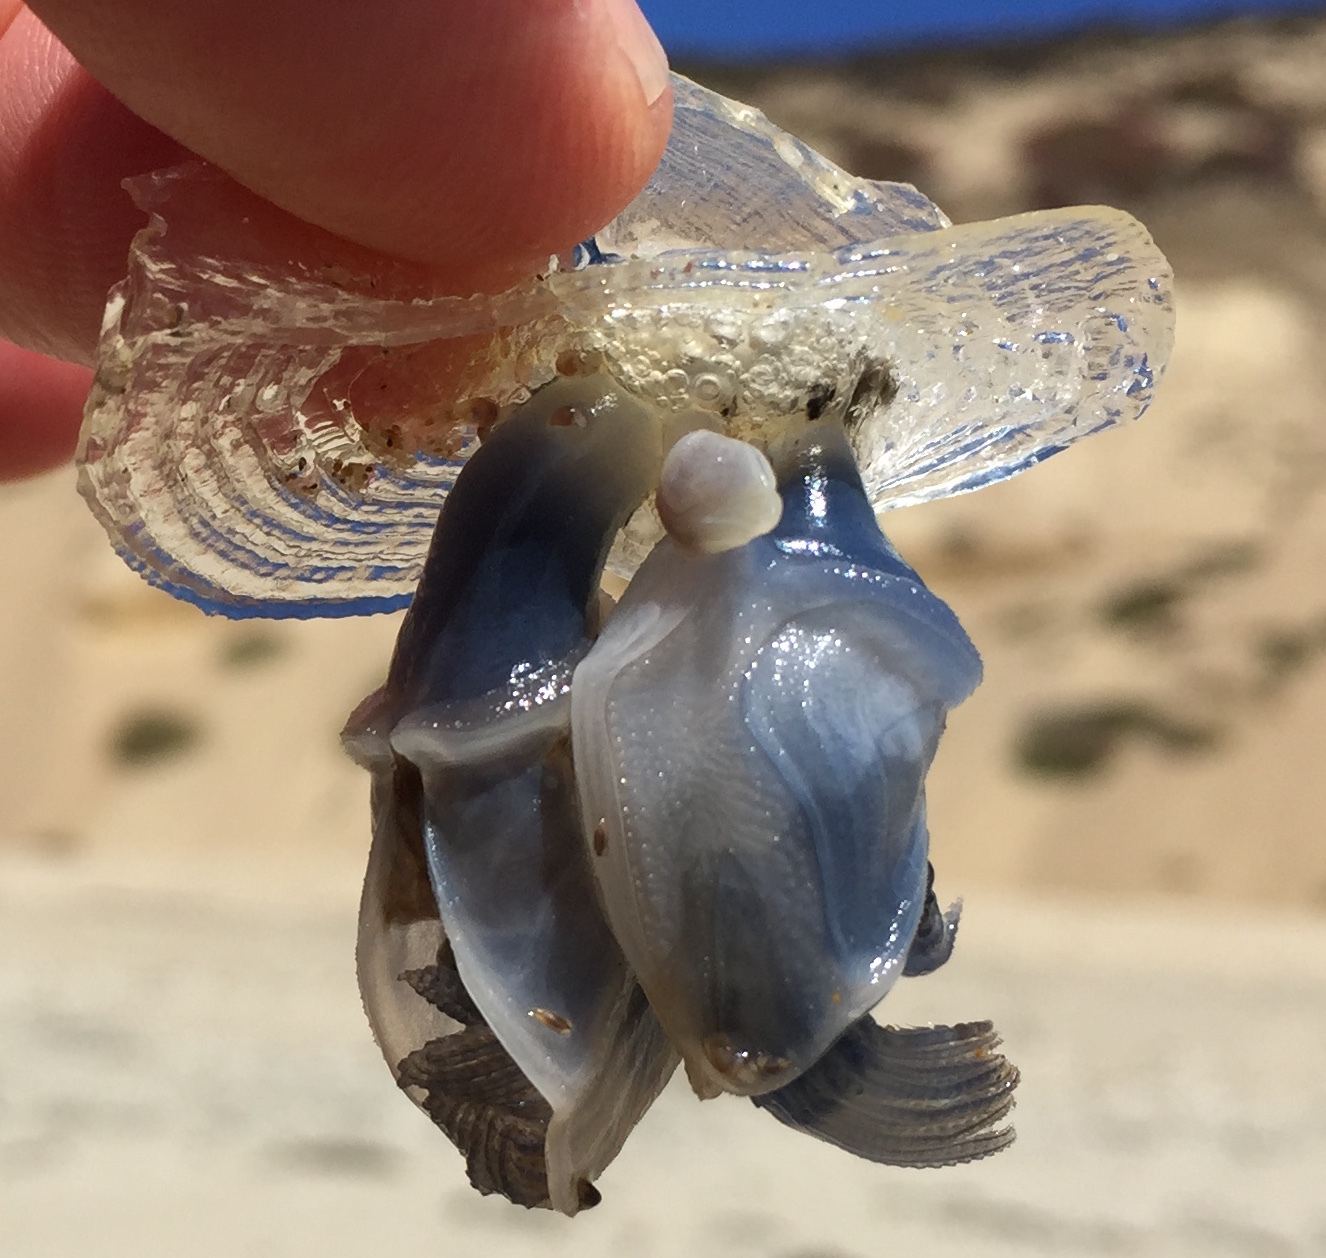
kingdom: Animalia
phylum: Arthropoda
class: Maxillopoda
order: Pedunculata
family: Lepadidae
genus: Dosima
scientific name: Dosima fascicularis
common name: Buoy barnacle
